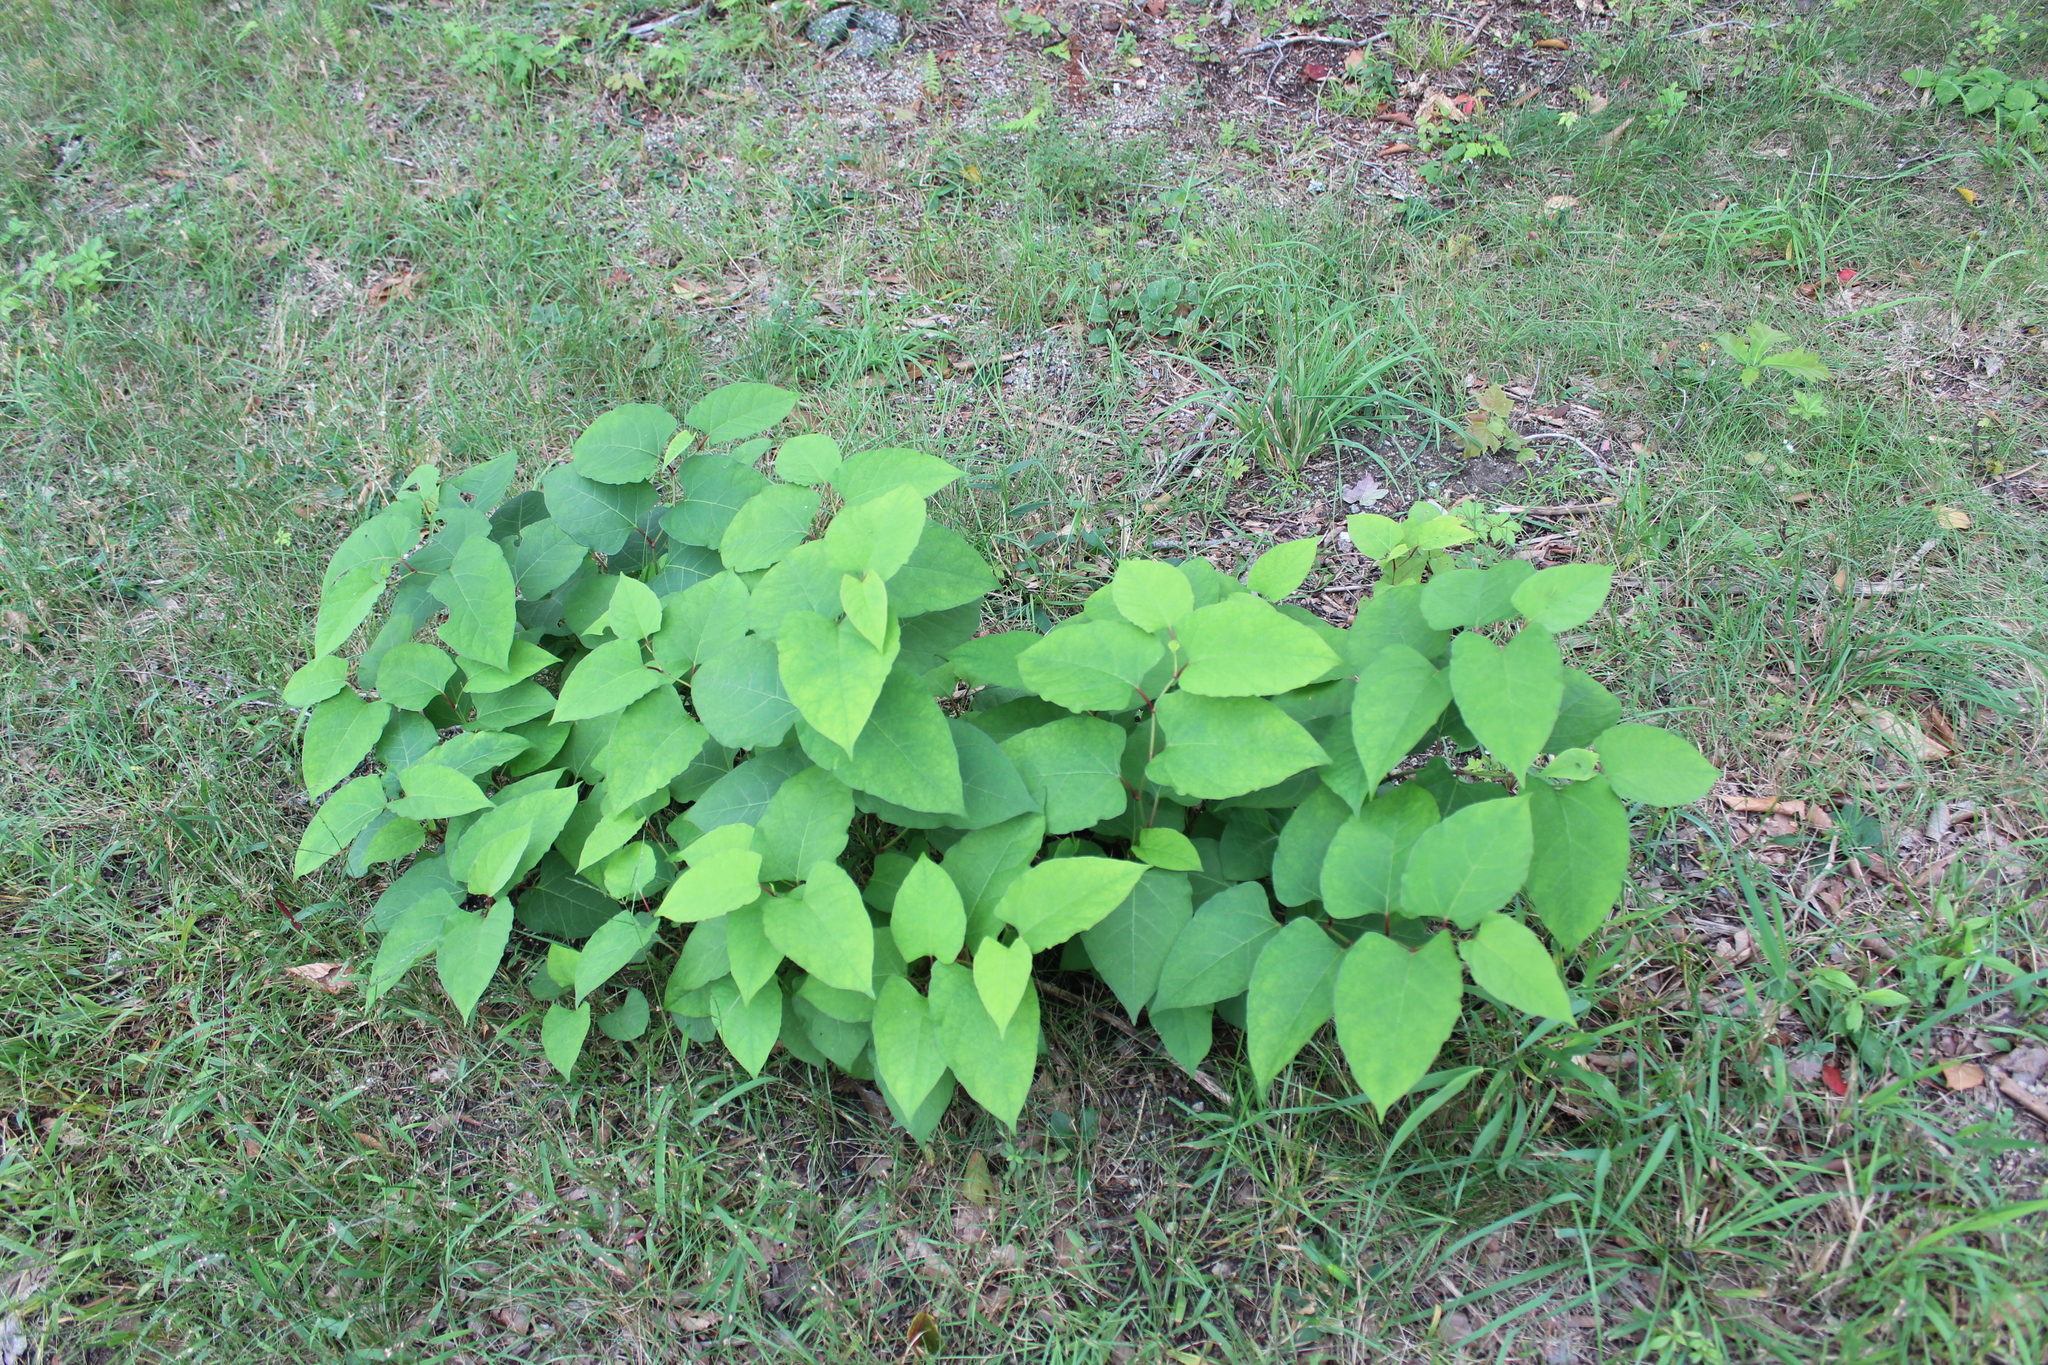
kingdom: Plantae
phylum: Tracheophyta
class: Magnoliopsida
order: Caryophyllales
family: Polygonaceae
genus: Reynoutria
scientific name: Reynoutria japonica
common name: Japanese knotweed
